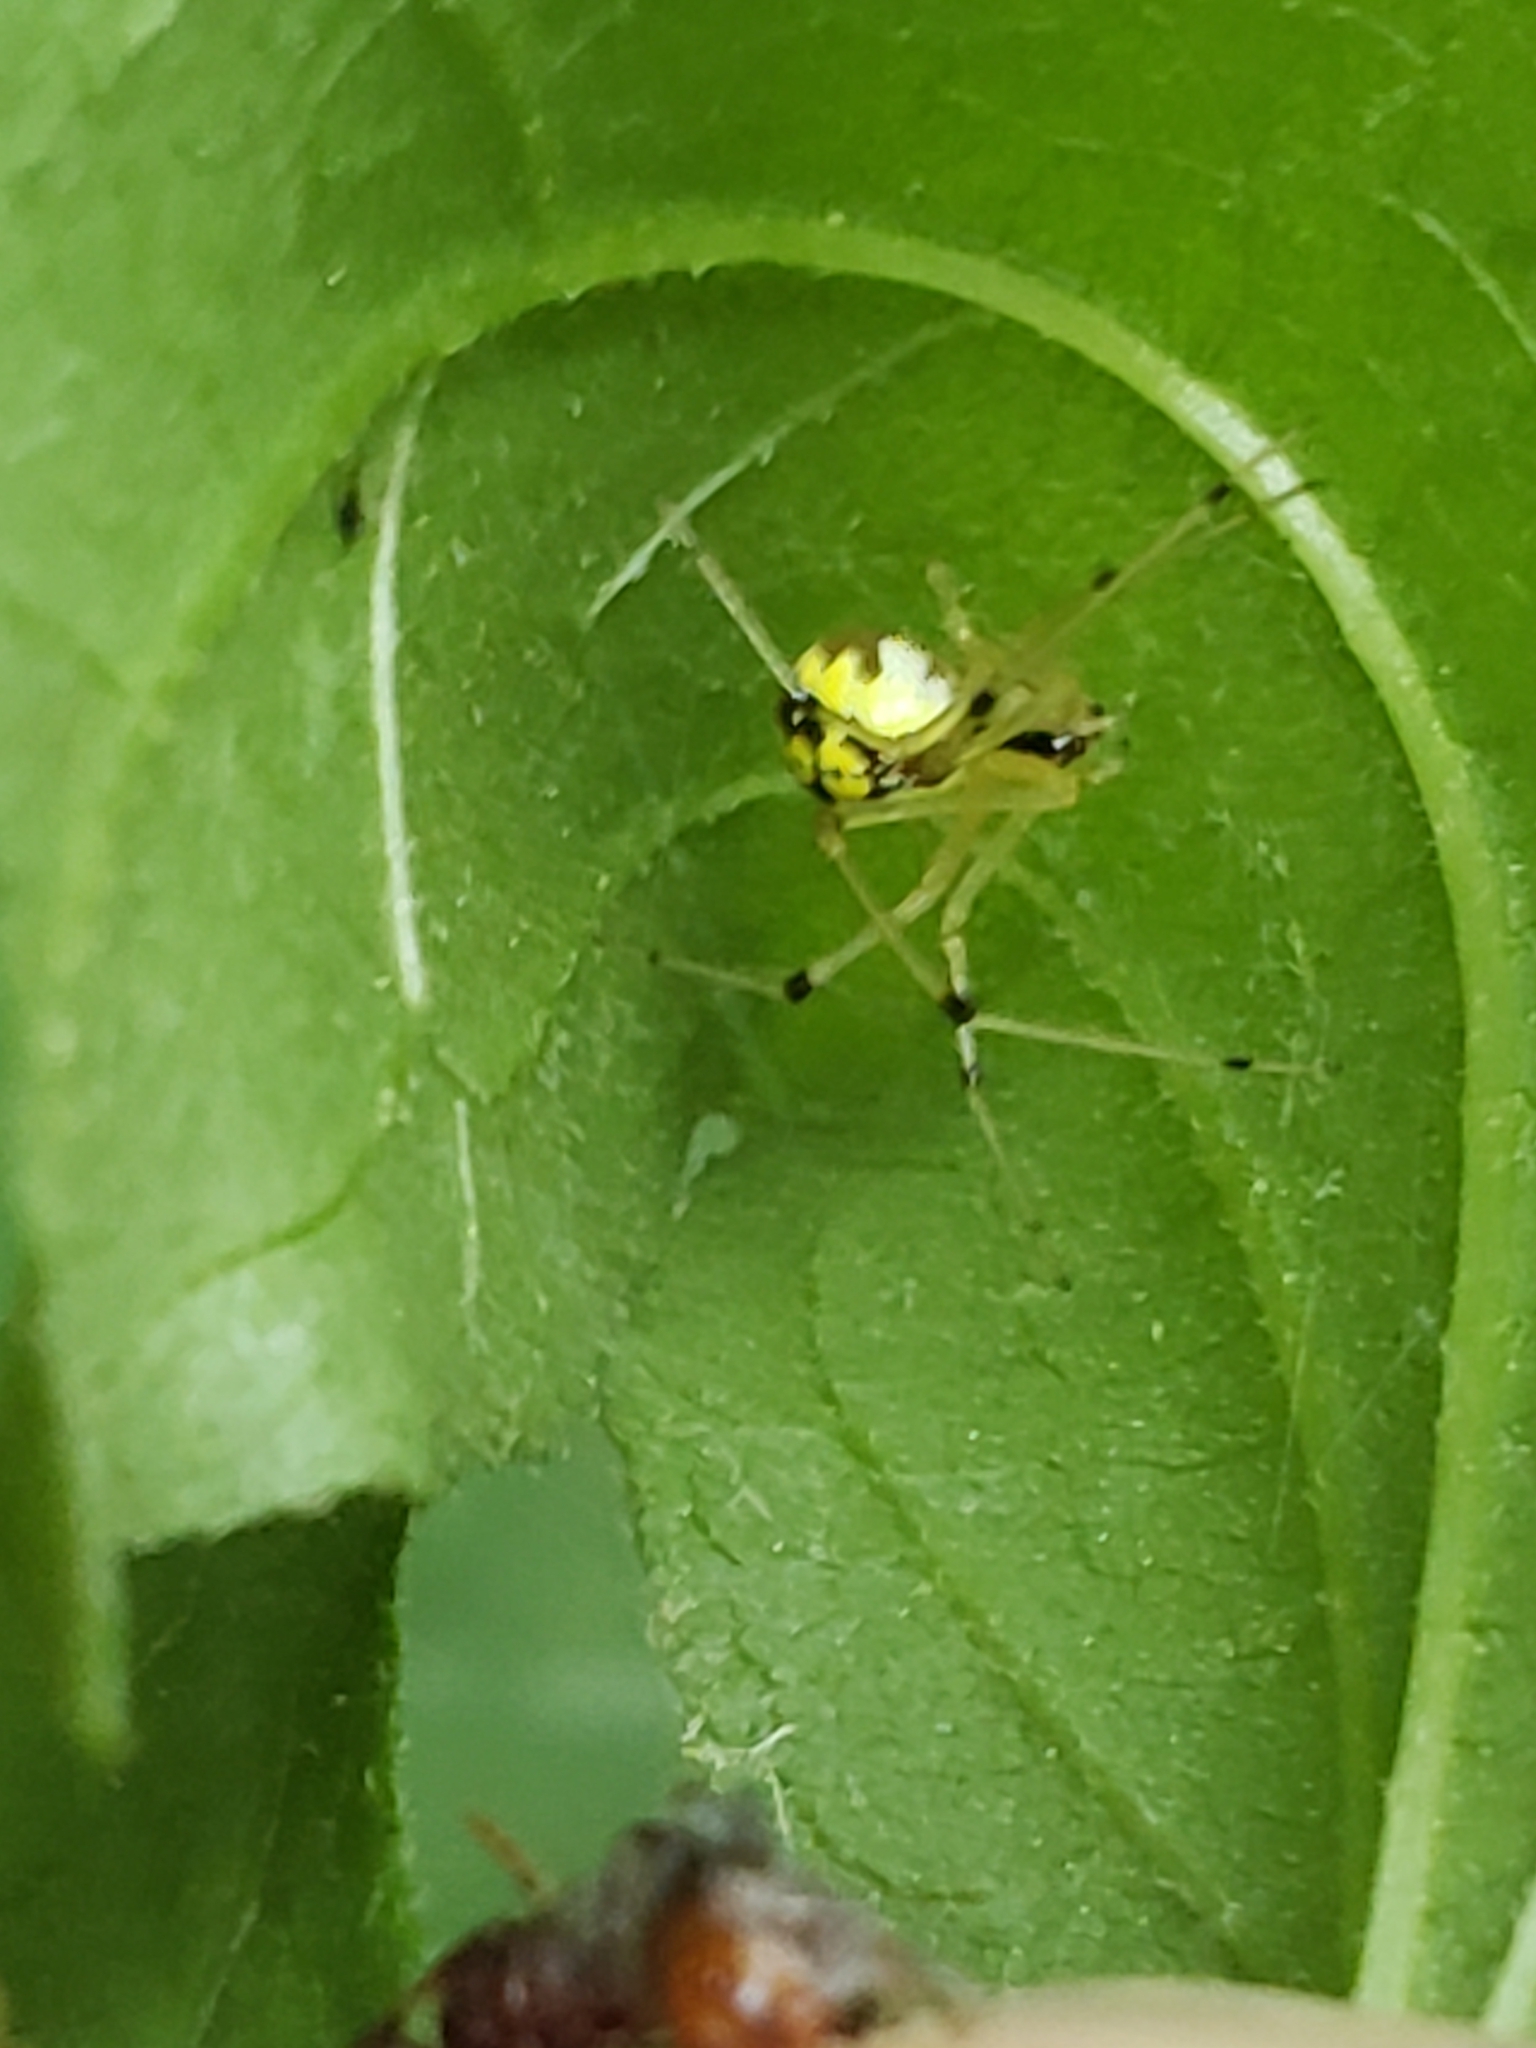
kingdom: Animalia
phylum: Arthropoda
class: Arachnida
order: Araneae
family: Theridiidae
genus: Phylloneta
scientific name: Phylloneta pictipes
